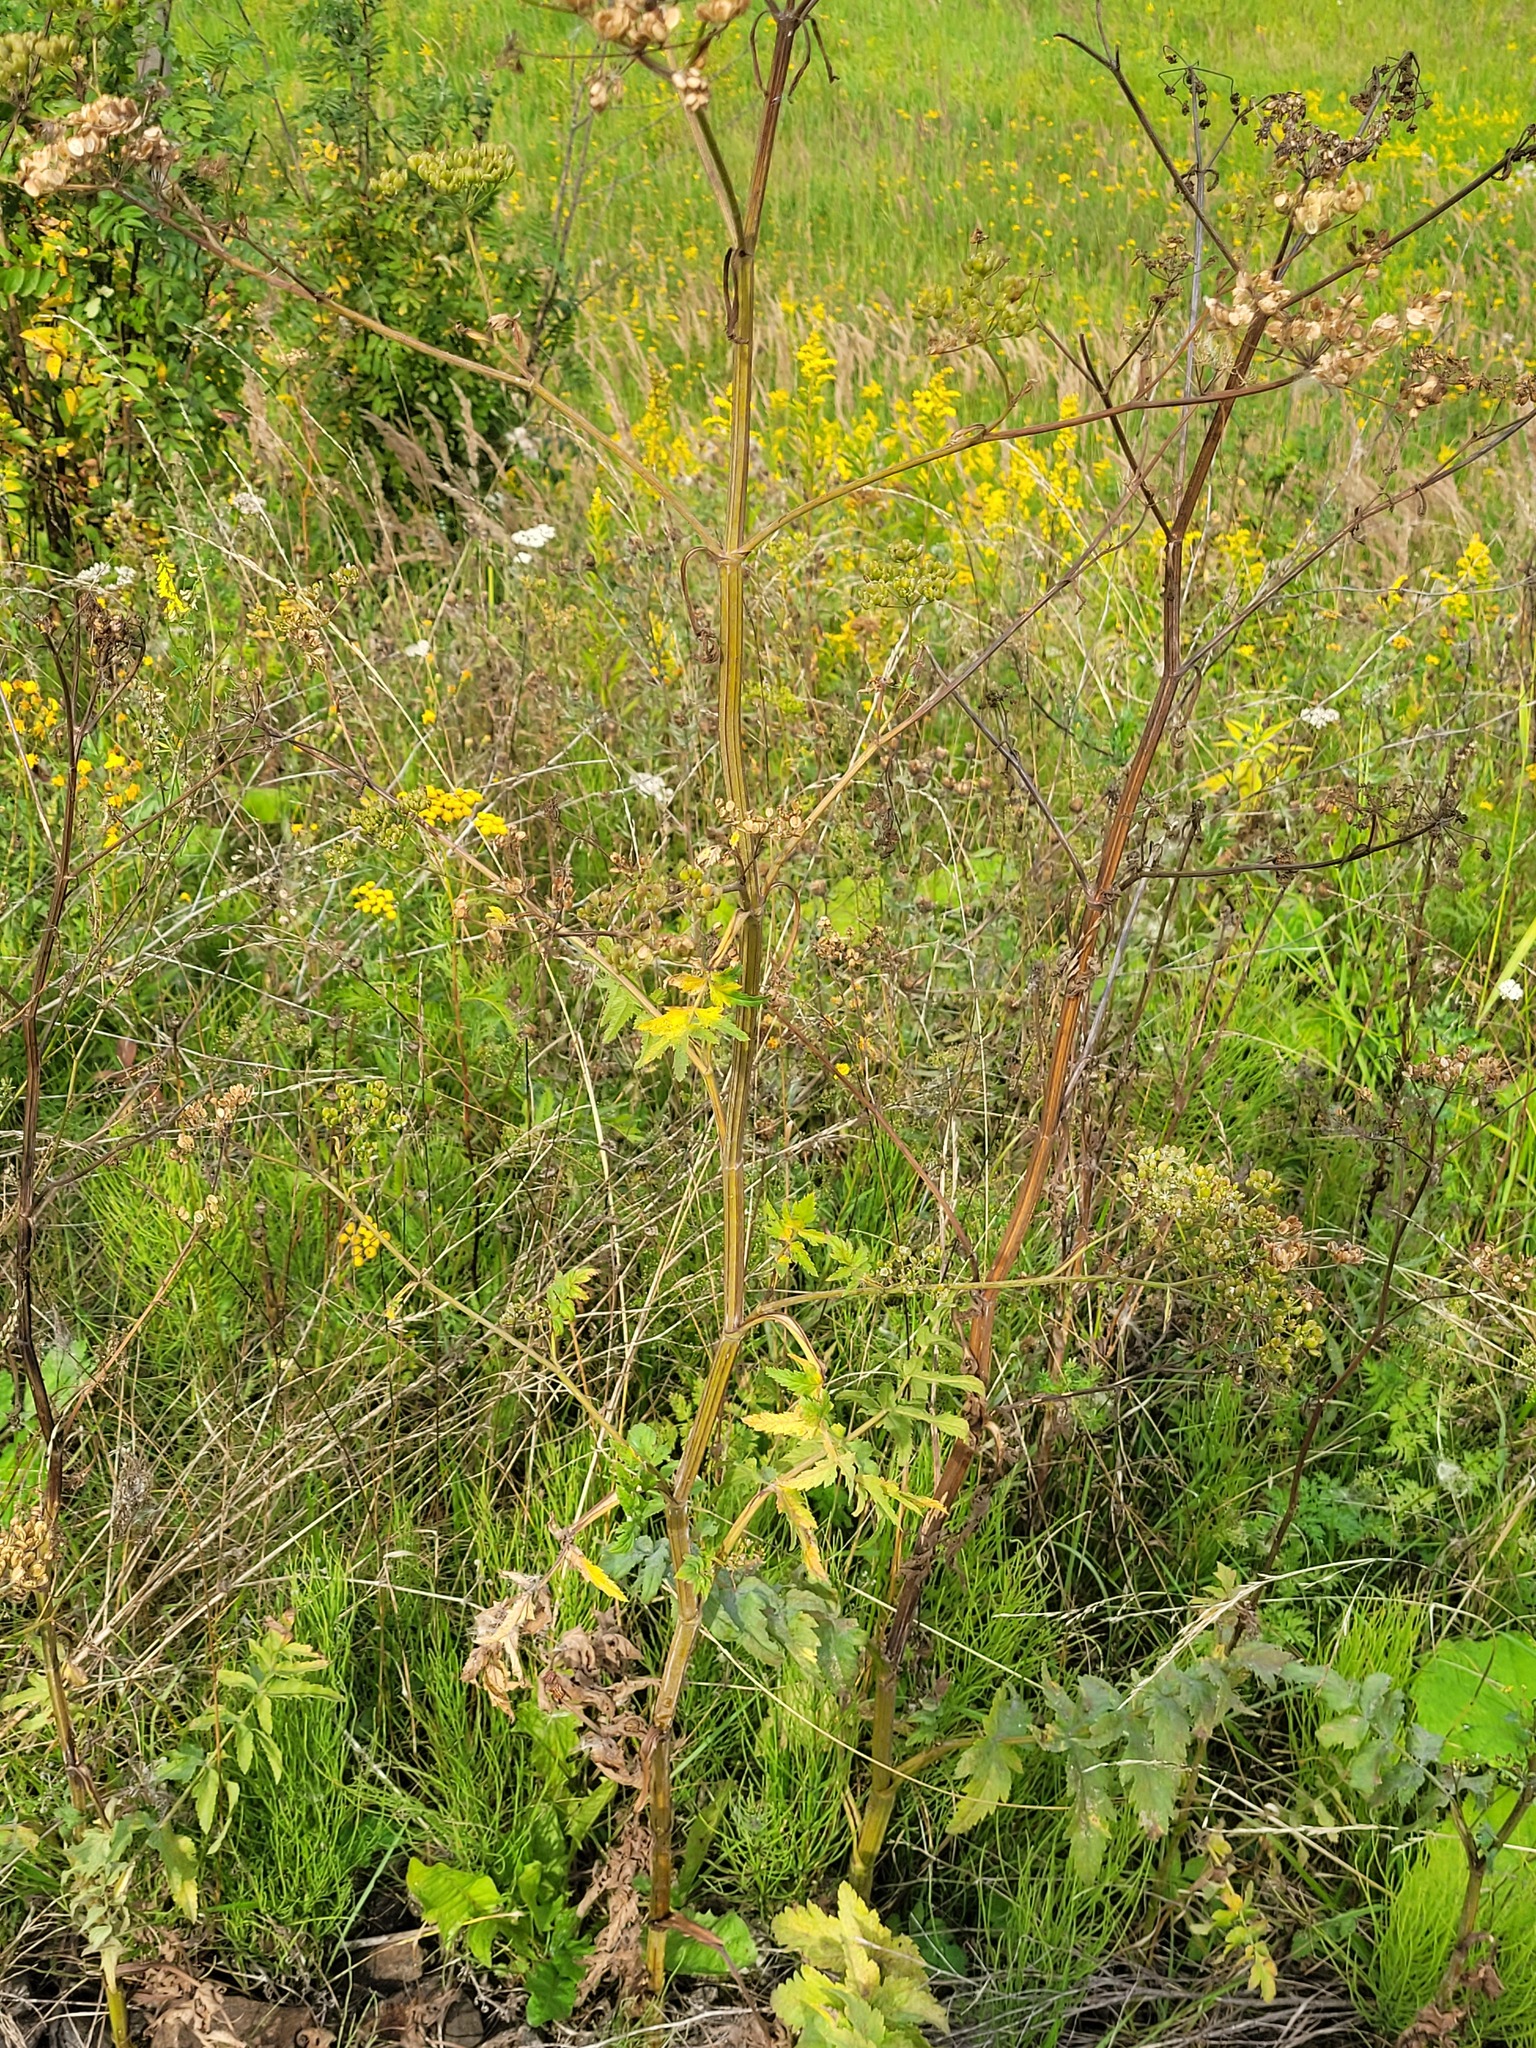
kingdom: Plantae
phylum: Tracheophyta
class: Magnoliopsida
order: Apiales
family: Apiaceae
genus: Pastinaca
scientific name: Pastinaca sativa
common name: Wild parsnip
